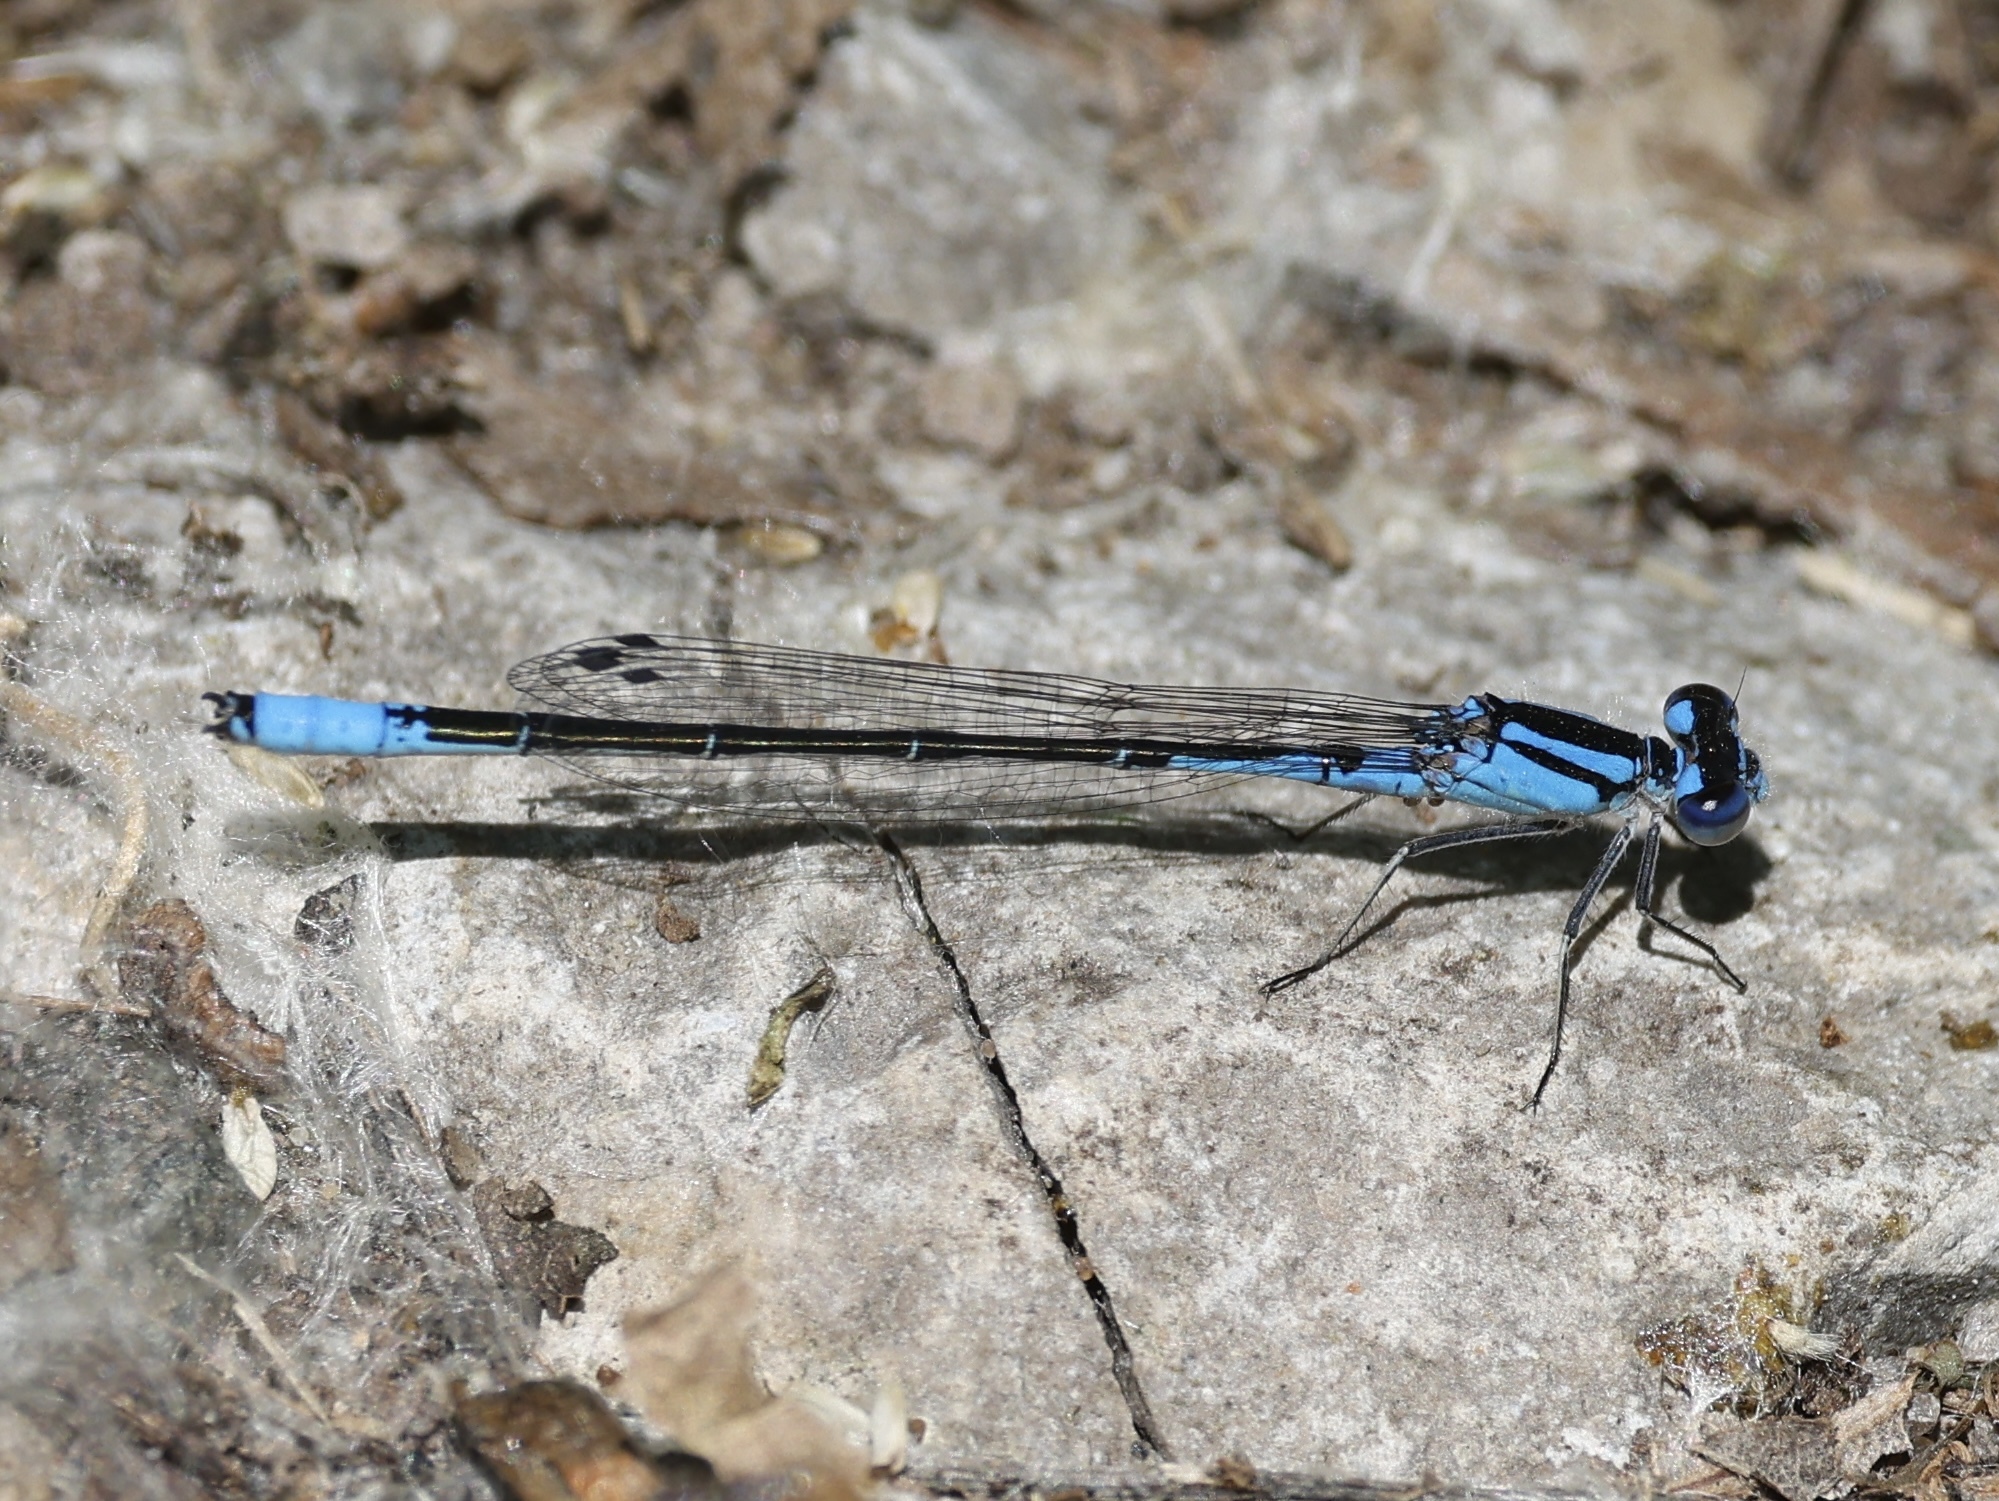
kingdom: Animalia
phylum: Arthropoda
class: Insecta
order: Odonata
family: Coenagrionidae
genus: Enallagma
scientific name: Enallagma aspersum
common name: Azure bluet
